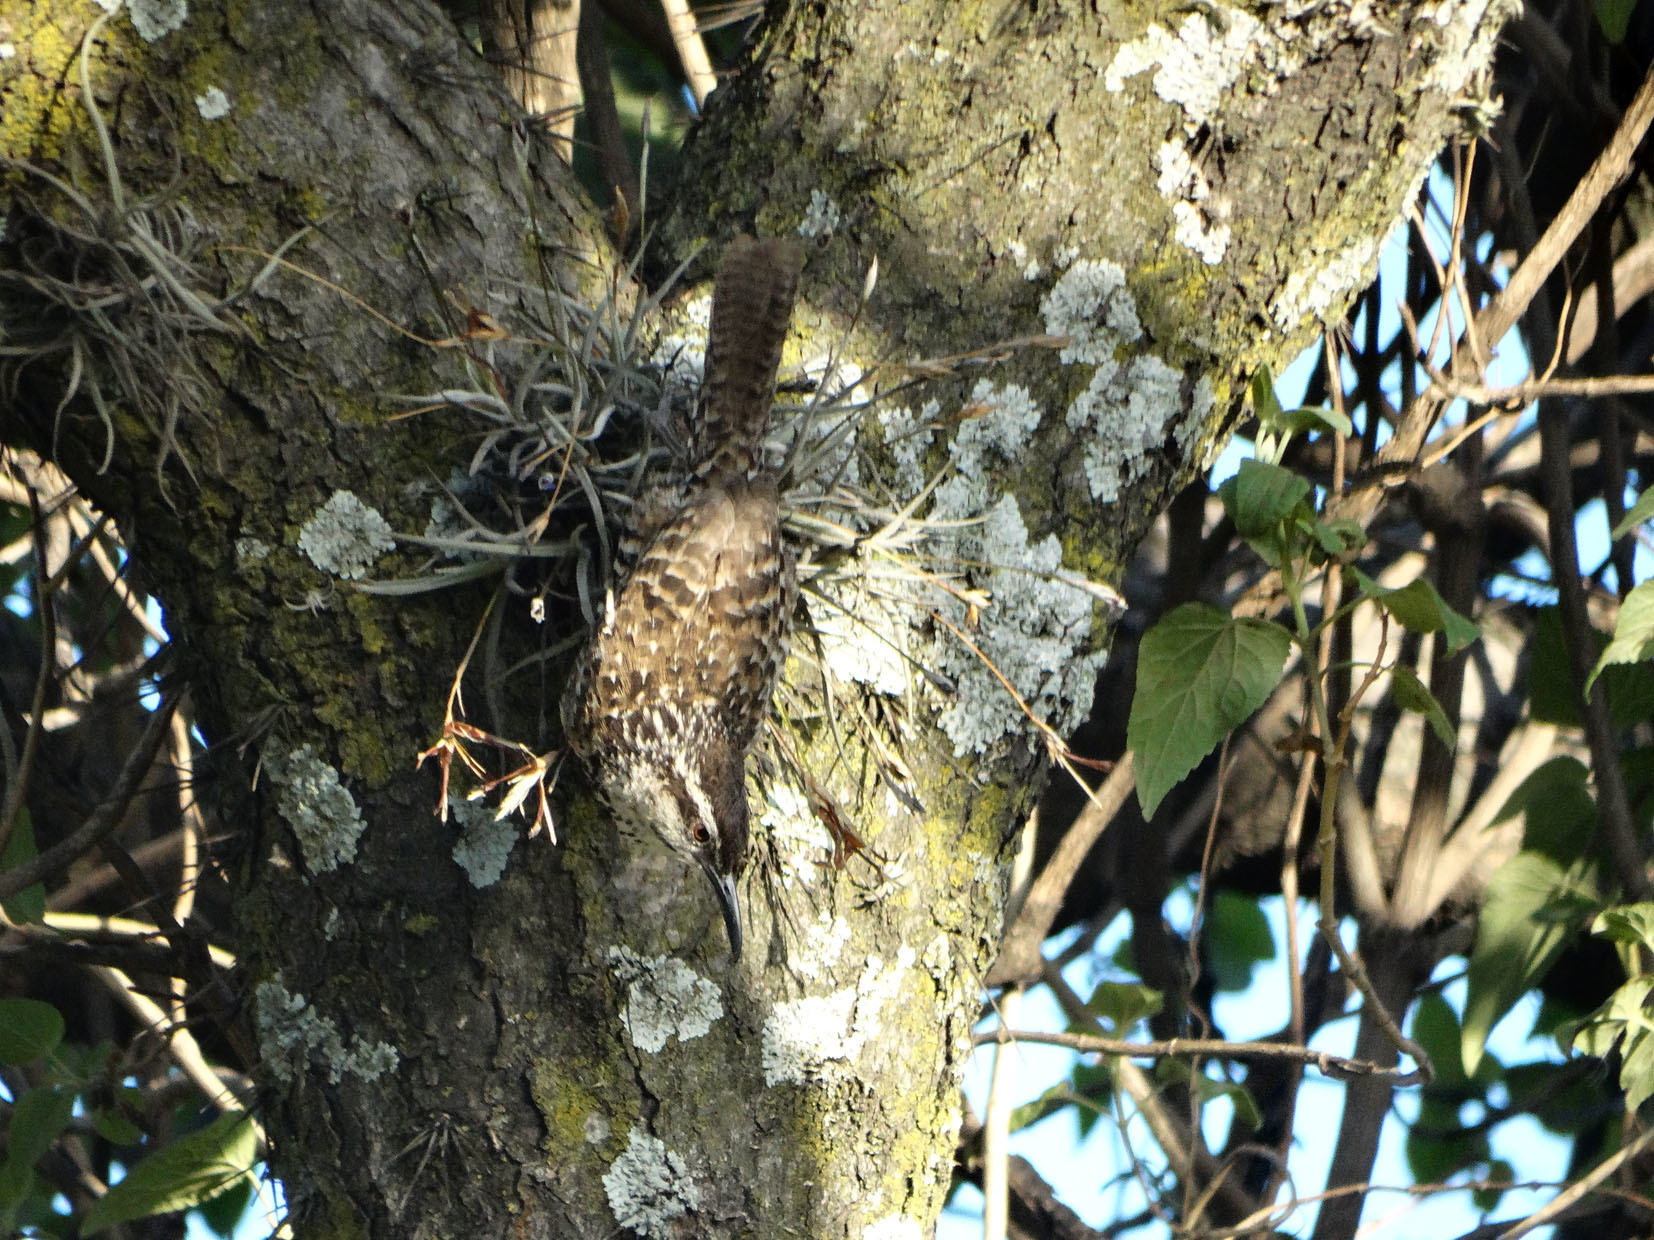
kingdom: Animalia
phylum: Chordata
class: Aves
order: Passeriformes
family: Troglodytidae
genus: Campylorhynchus
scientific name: Campylorhynchus jocosus
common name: Boucard's wren
